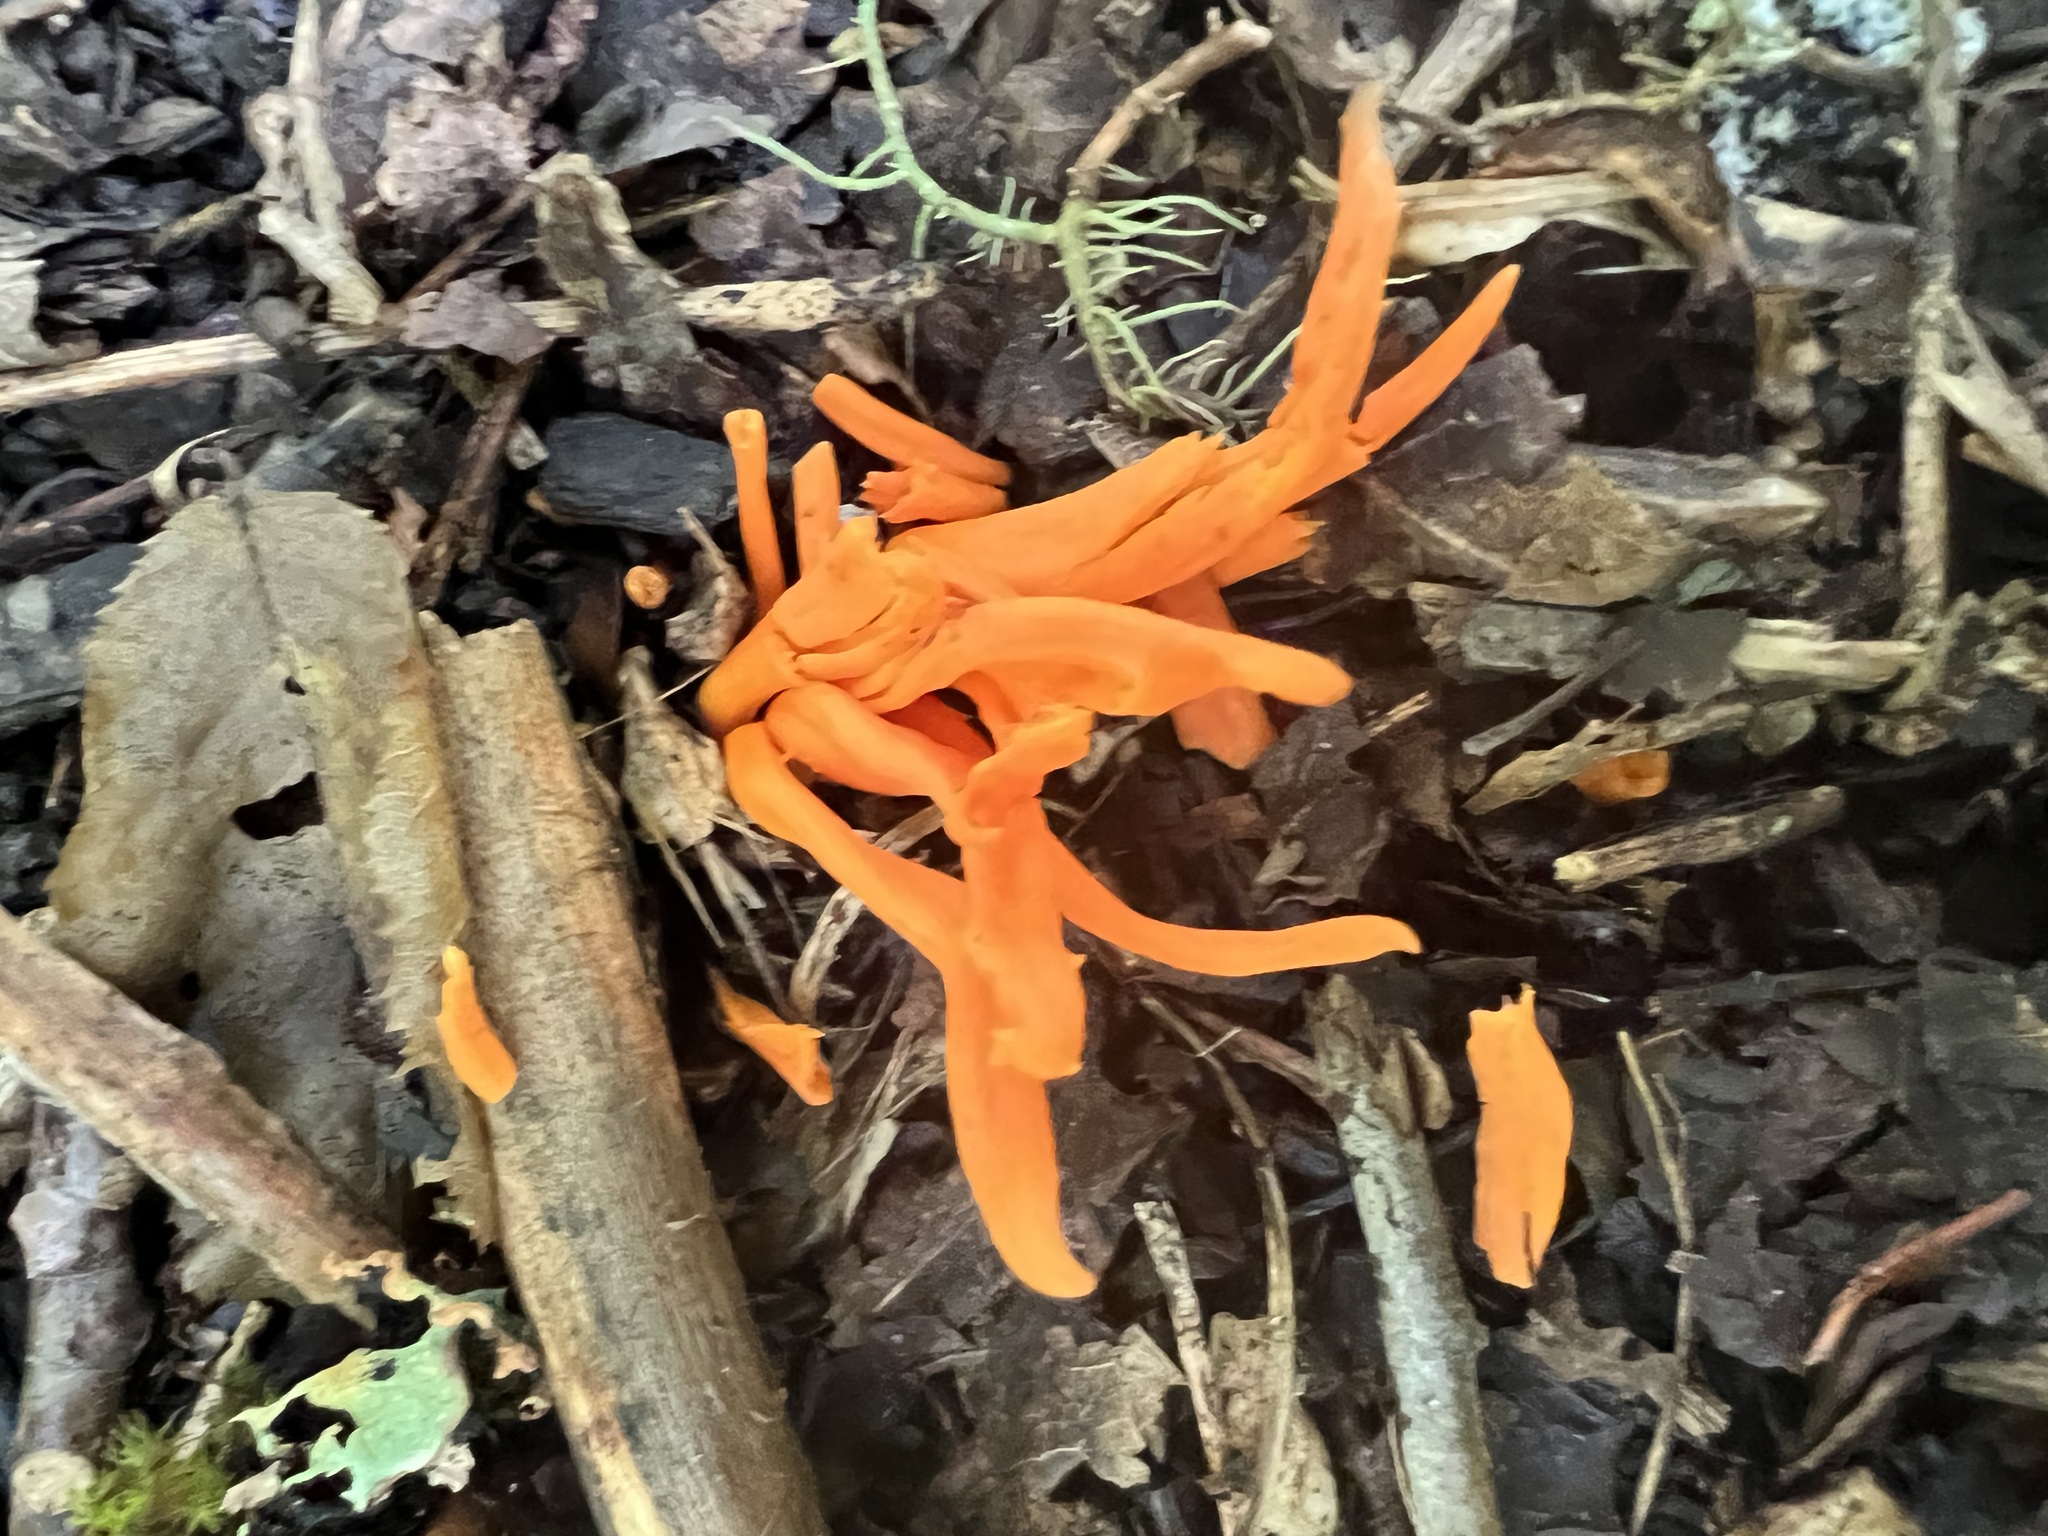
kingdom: Fungi
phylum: Basidiomycota
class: Agaricomycetes
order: Agaricales
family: Clavariaceae
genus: Clavulinopsis
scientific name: Clavulinopsis aurantiocinnabarina
